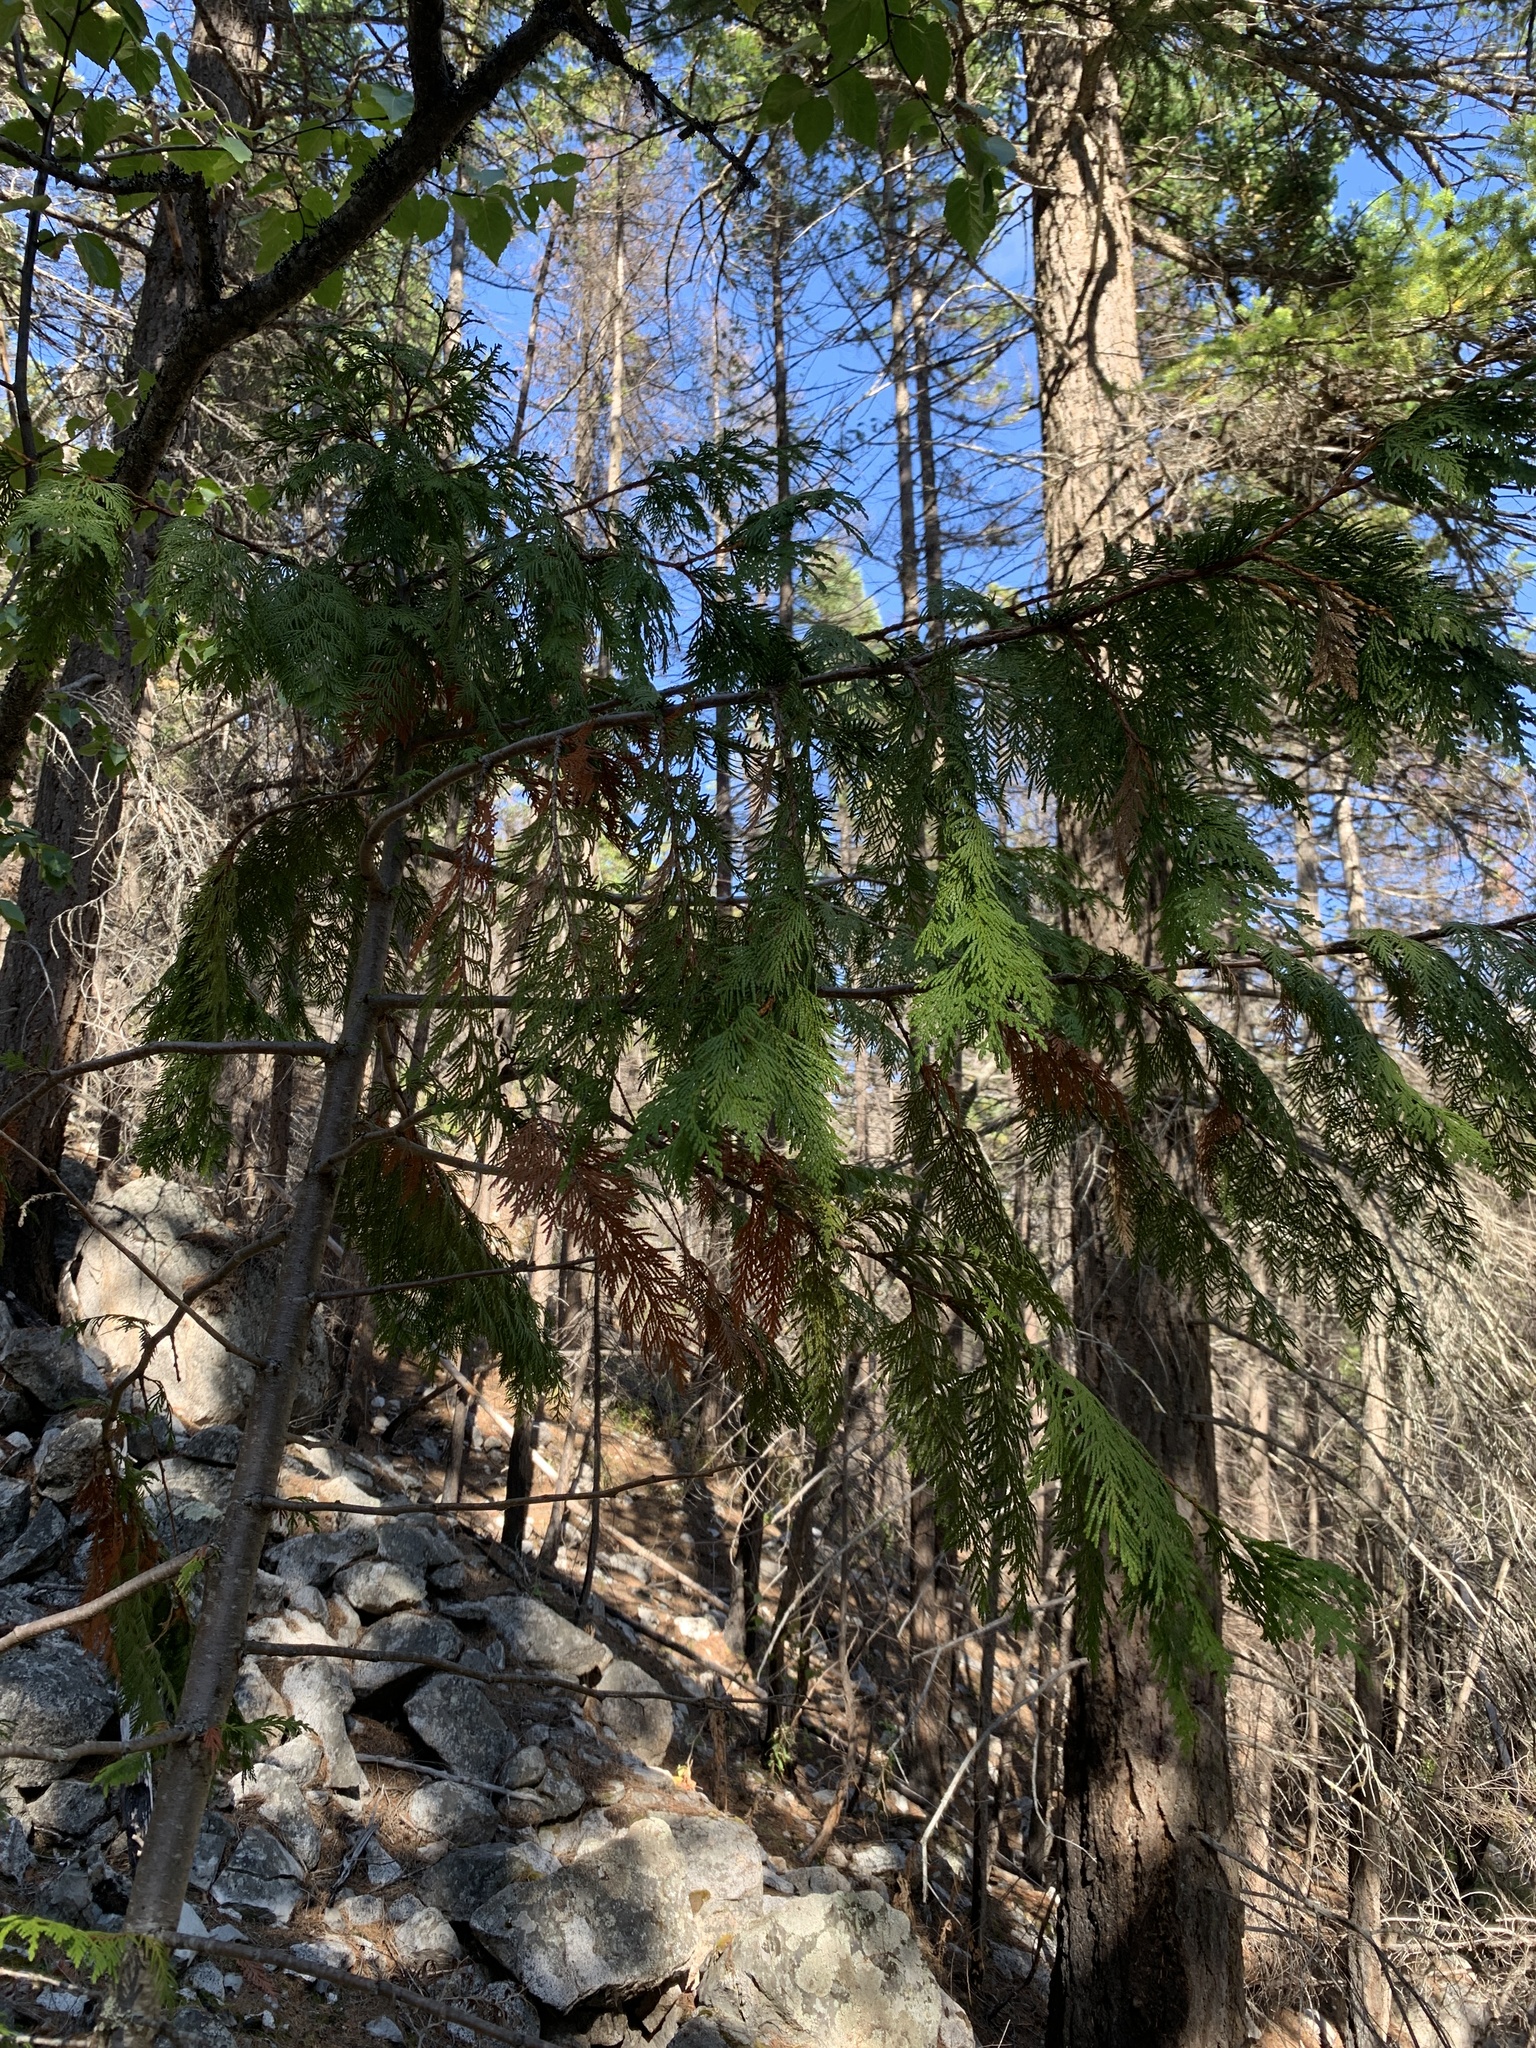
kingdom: Plantae
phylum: Tracheophyta
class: Pinopsida
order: Pinales
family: Cupressaceae
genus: Thuja
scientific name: Thuja plicata
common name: Western red-cedar
